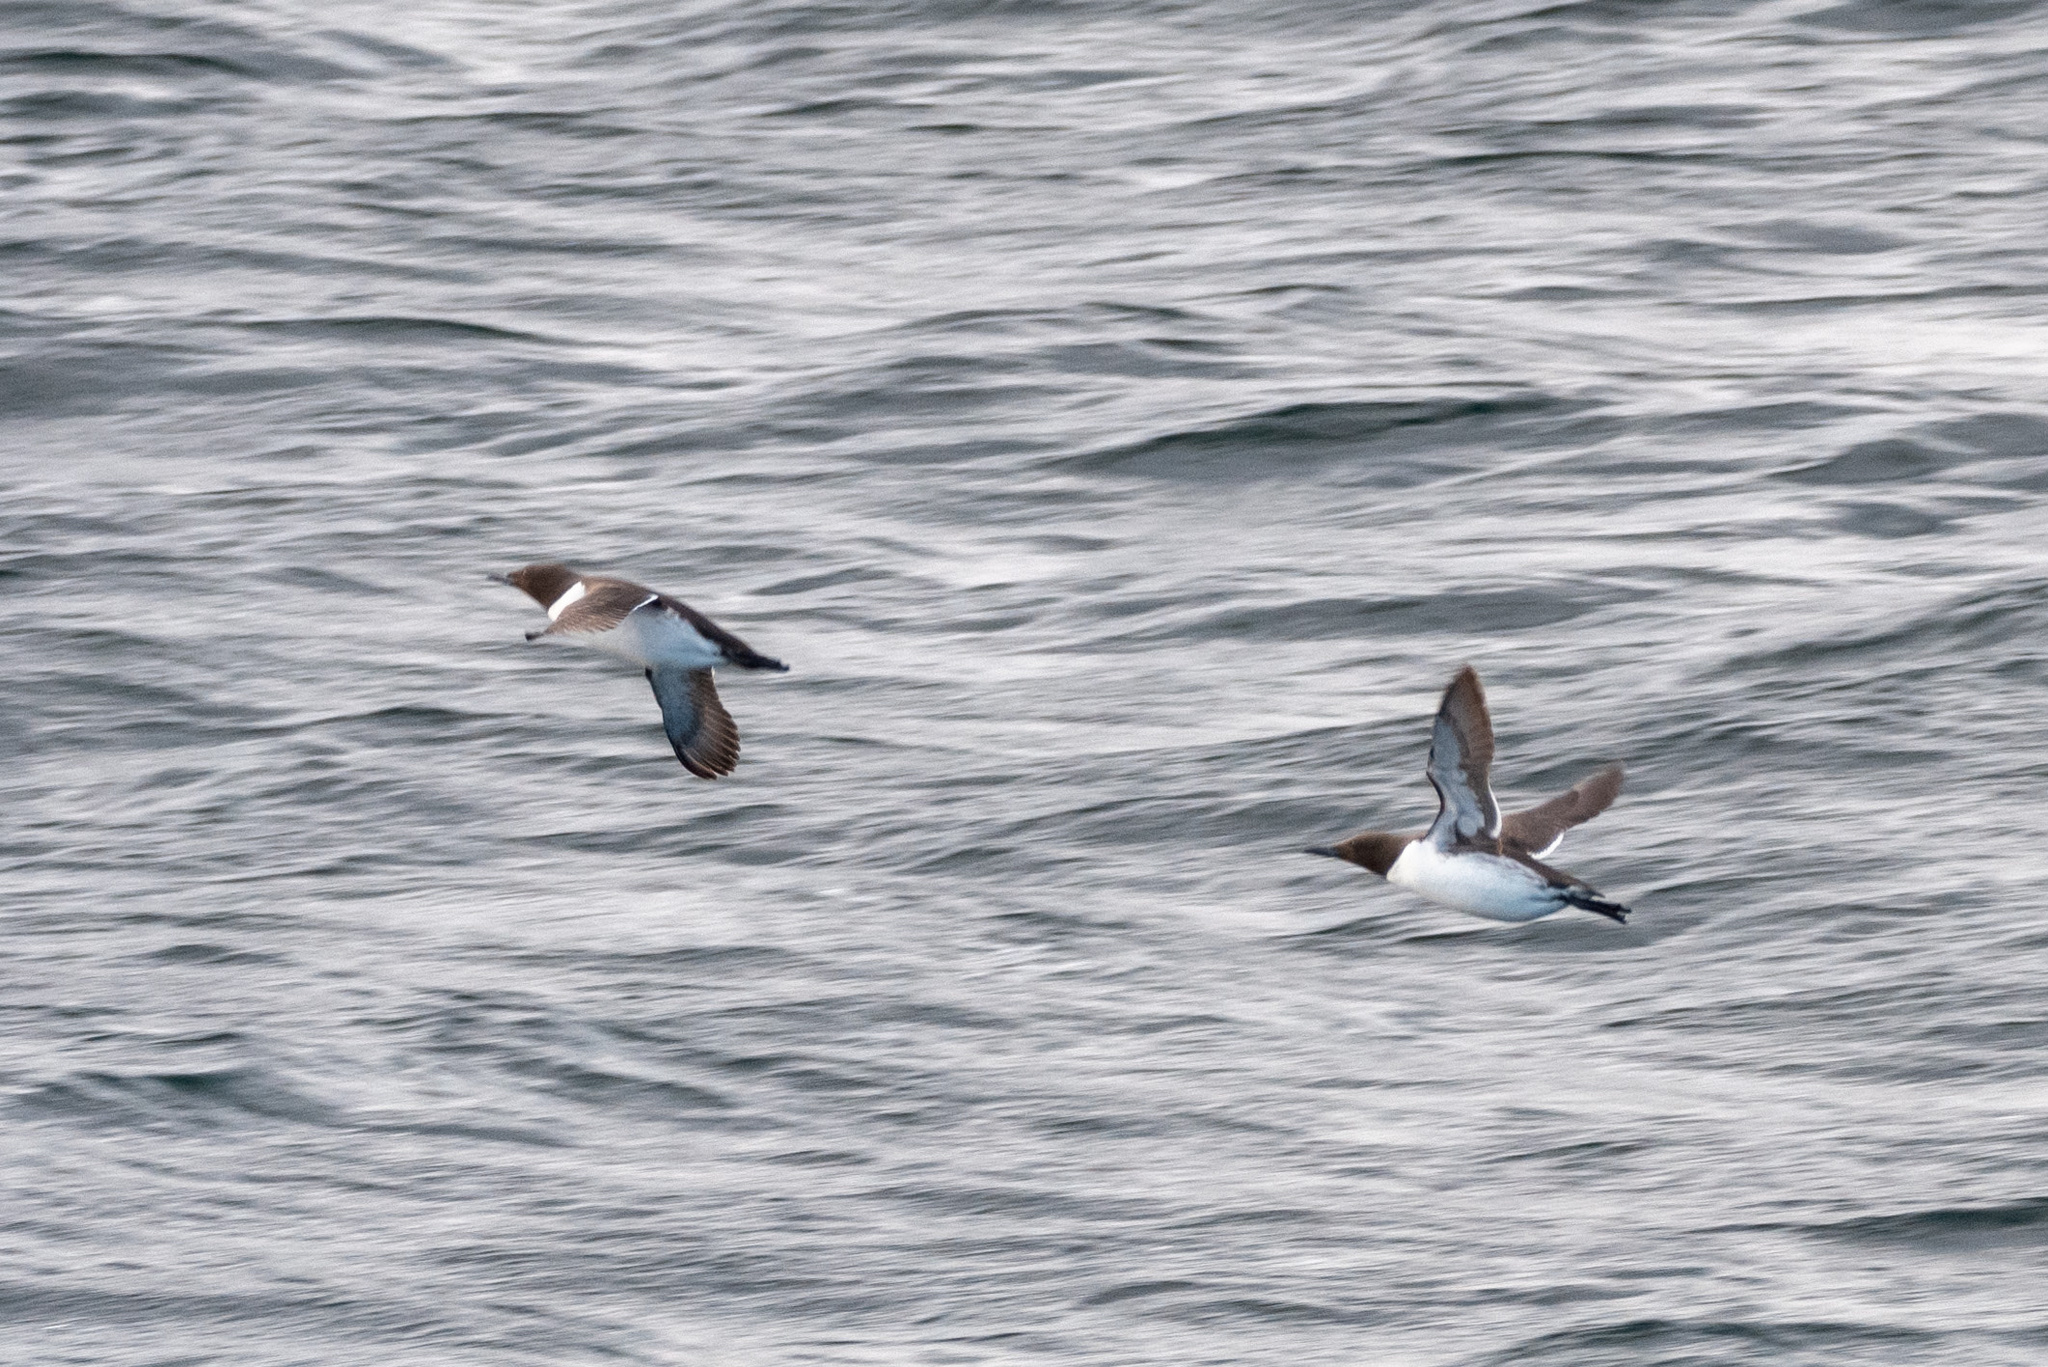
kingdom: Animalia
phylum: Chordata
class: Aves
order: Charadriiformes
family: Alcidae
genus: Uria
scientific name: Uria aalge
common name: Common murre
